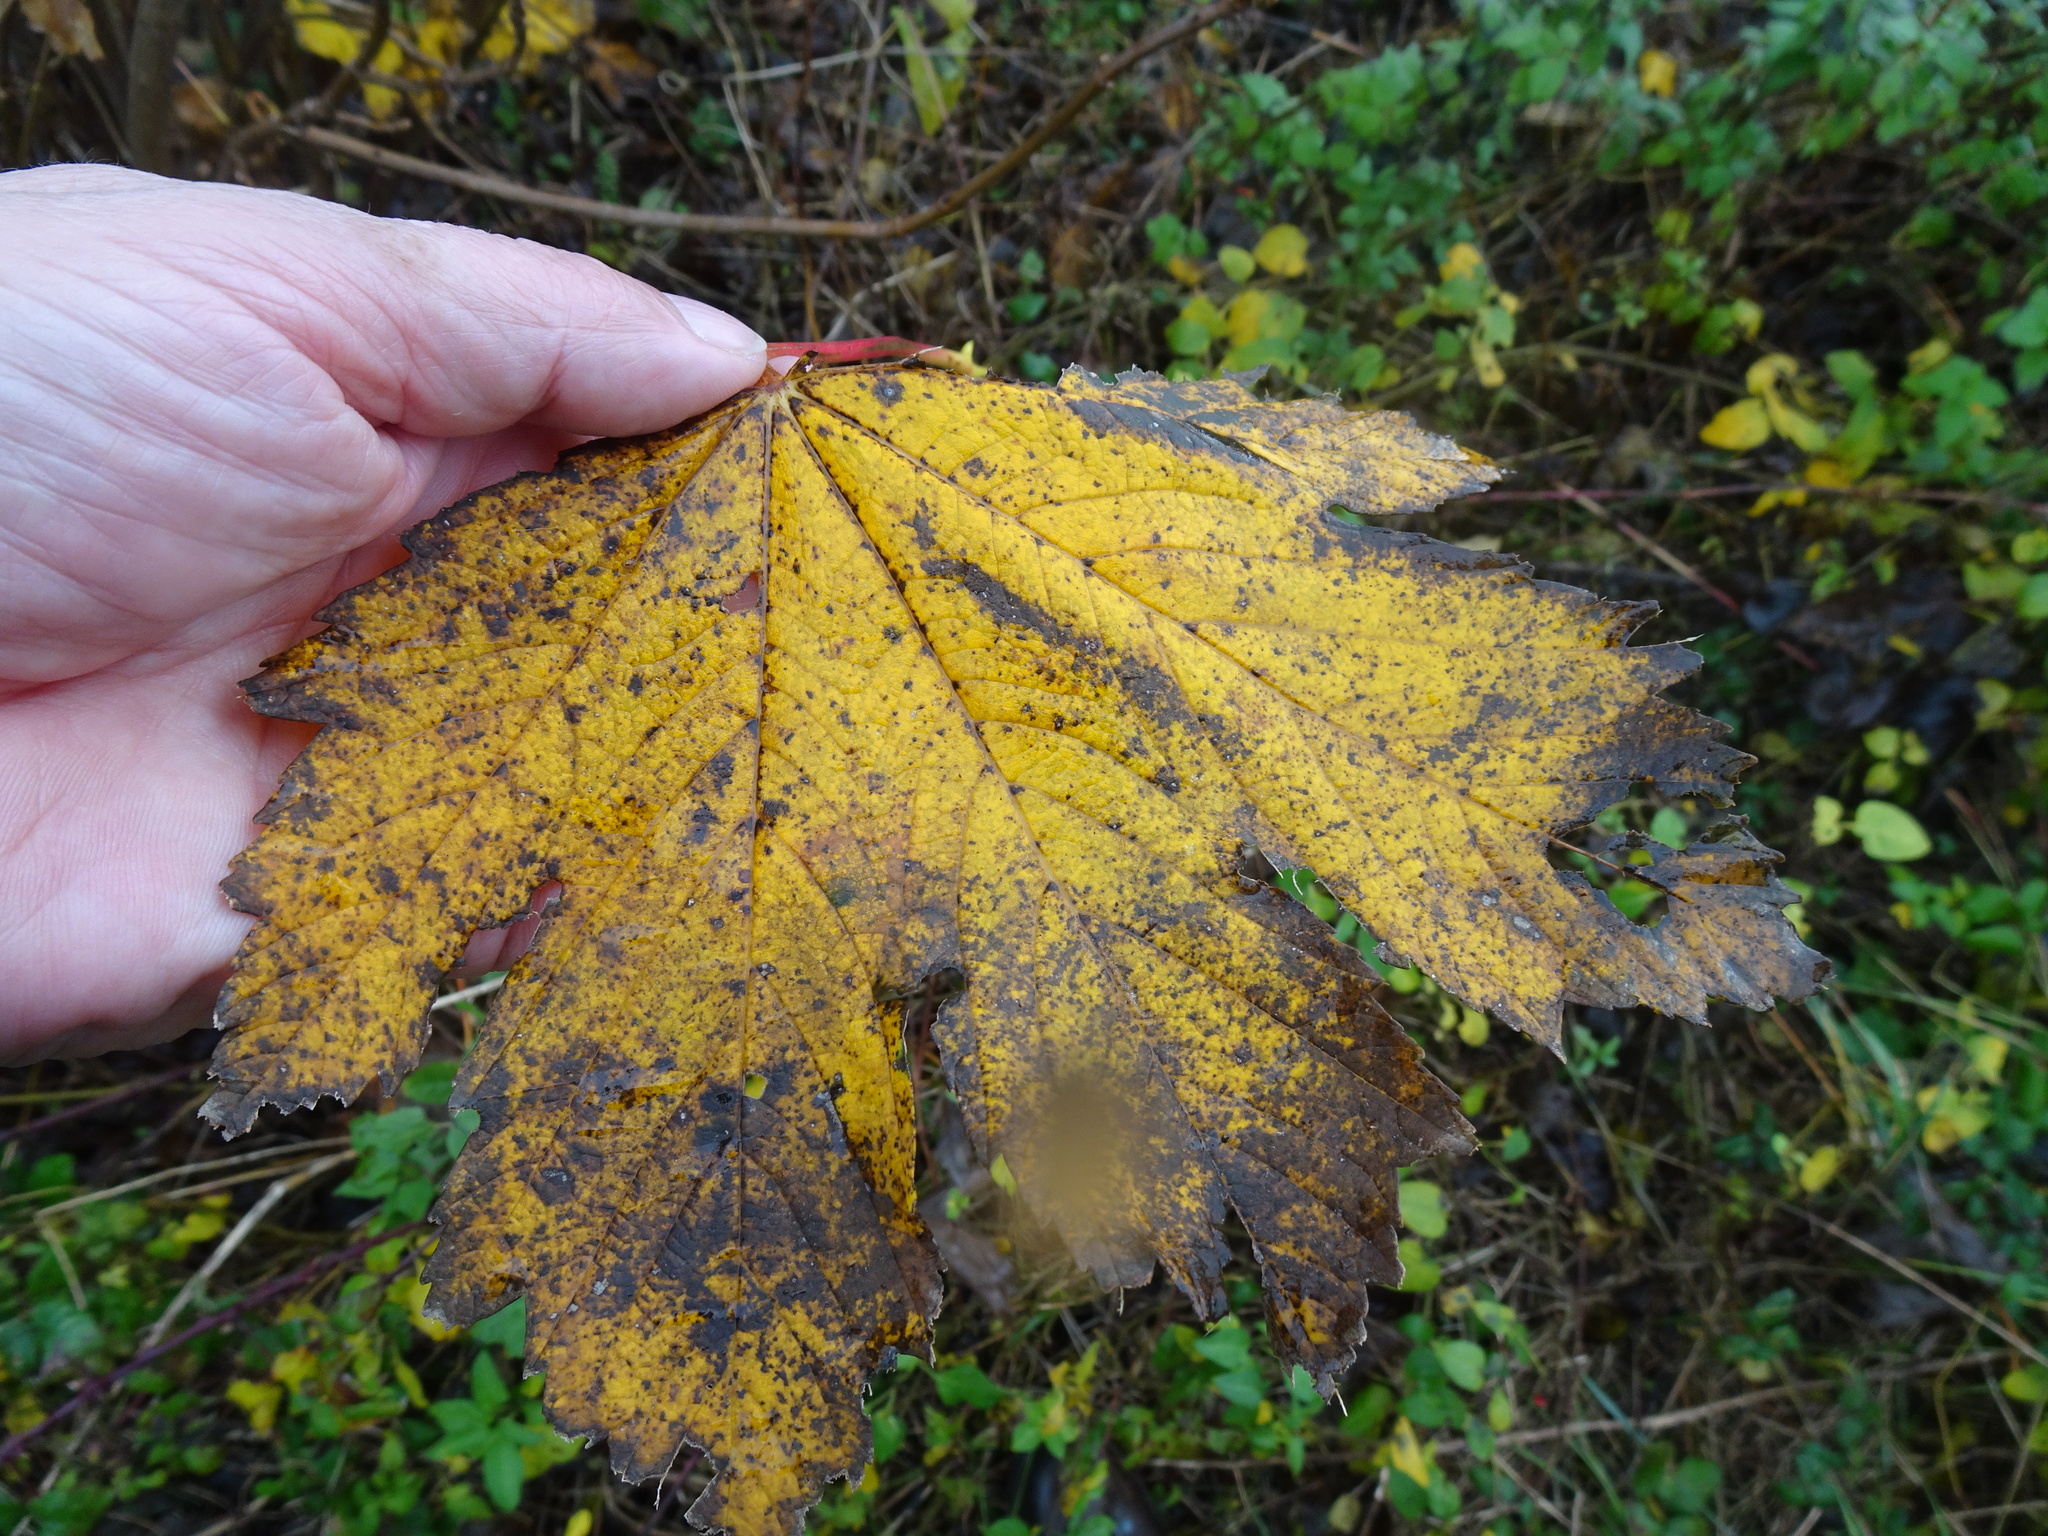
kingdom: Plantae
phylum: Tracheophyta
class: Magnoliopsida
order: Sapindales
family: Sapindaceae
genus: Acer
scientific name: Acer pseudoplatanus
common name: Sycamore
